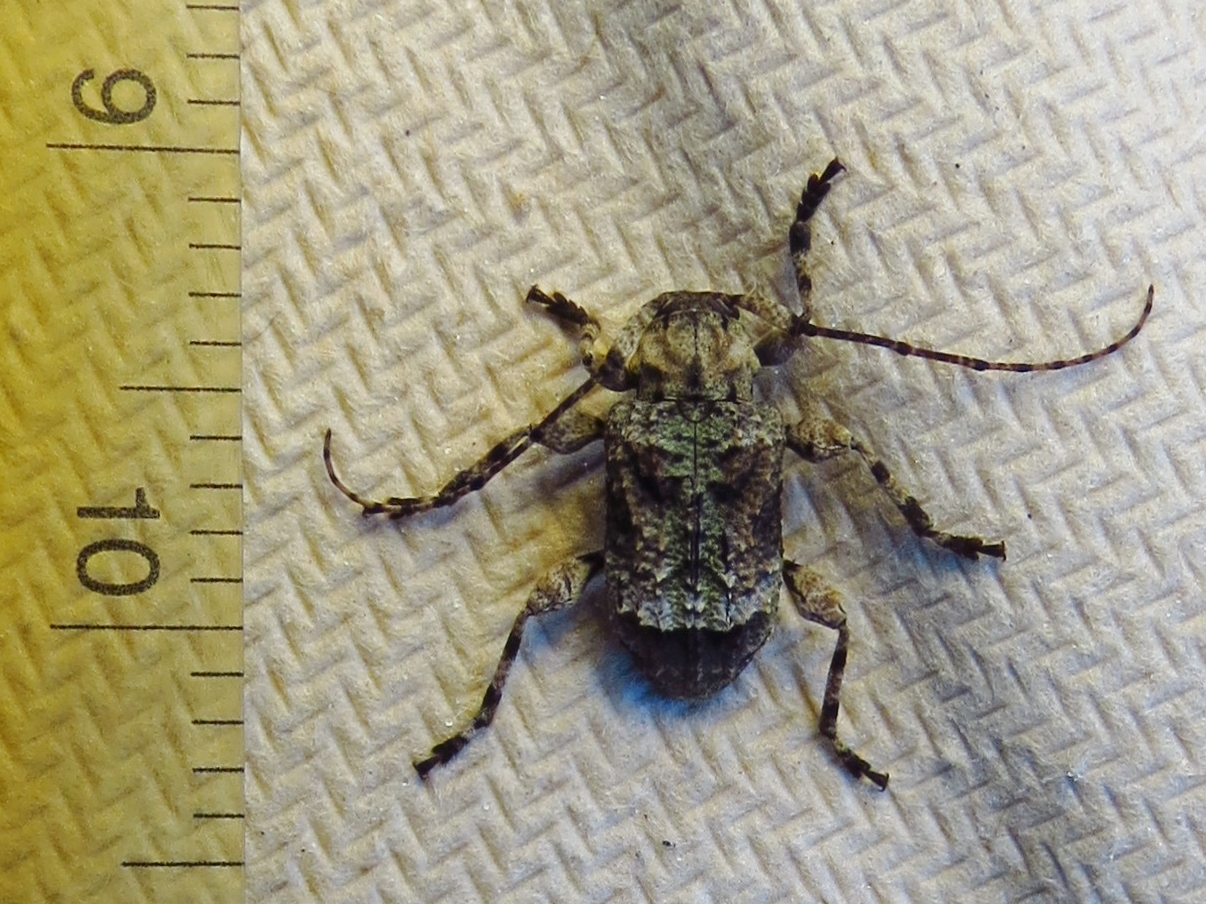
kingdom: Animalia
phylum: Arthropoda
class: Insecta
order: Coleoptera
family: Cerambycidae
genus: Leptostylus
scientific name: Leptostylus transversus
